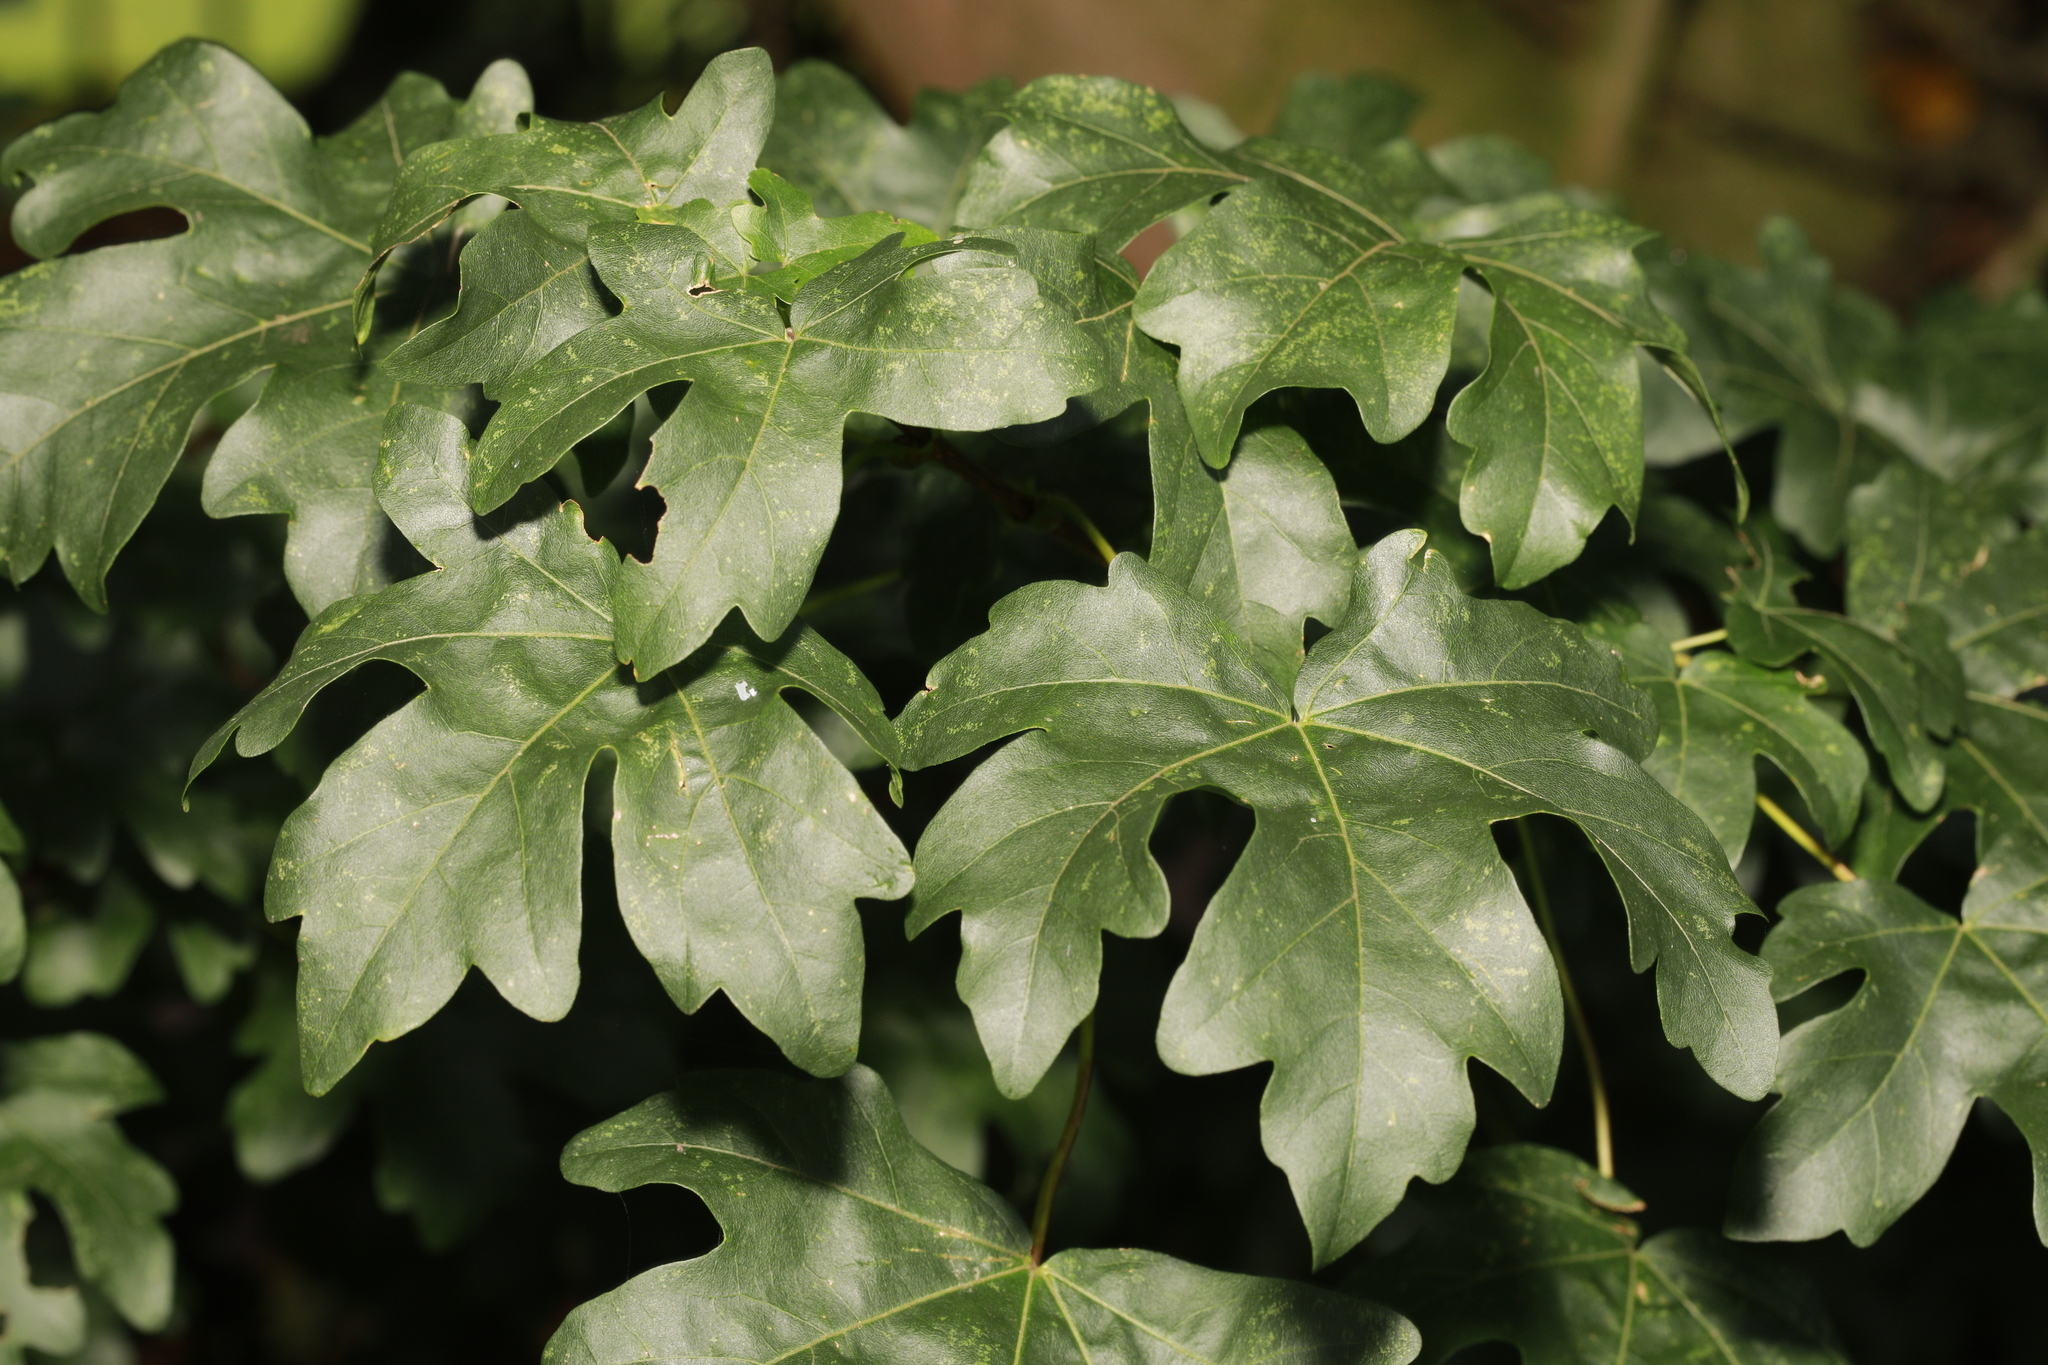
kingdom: Plantae
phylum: Tracheophyta
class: Magnoliopsida
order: Sapindales
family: Sapindaceae
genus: Acer
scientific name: Acer campestre
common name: Field maple
